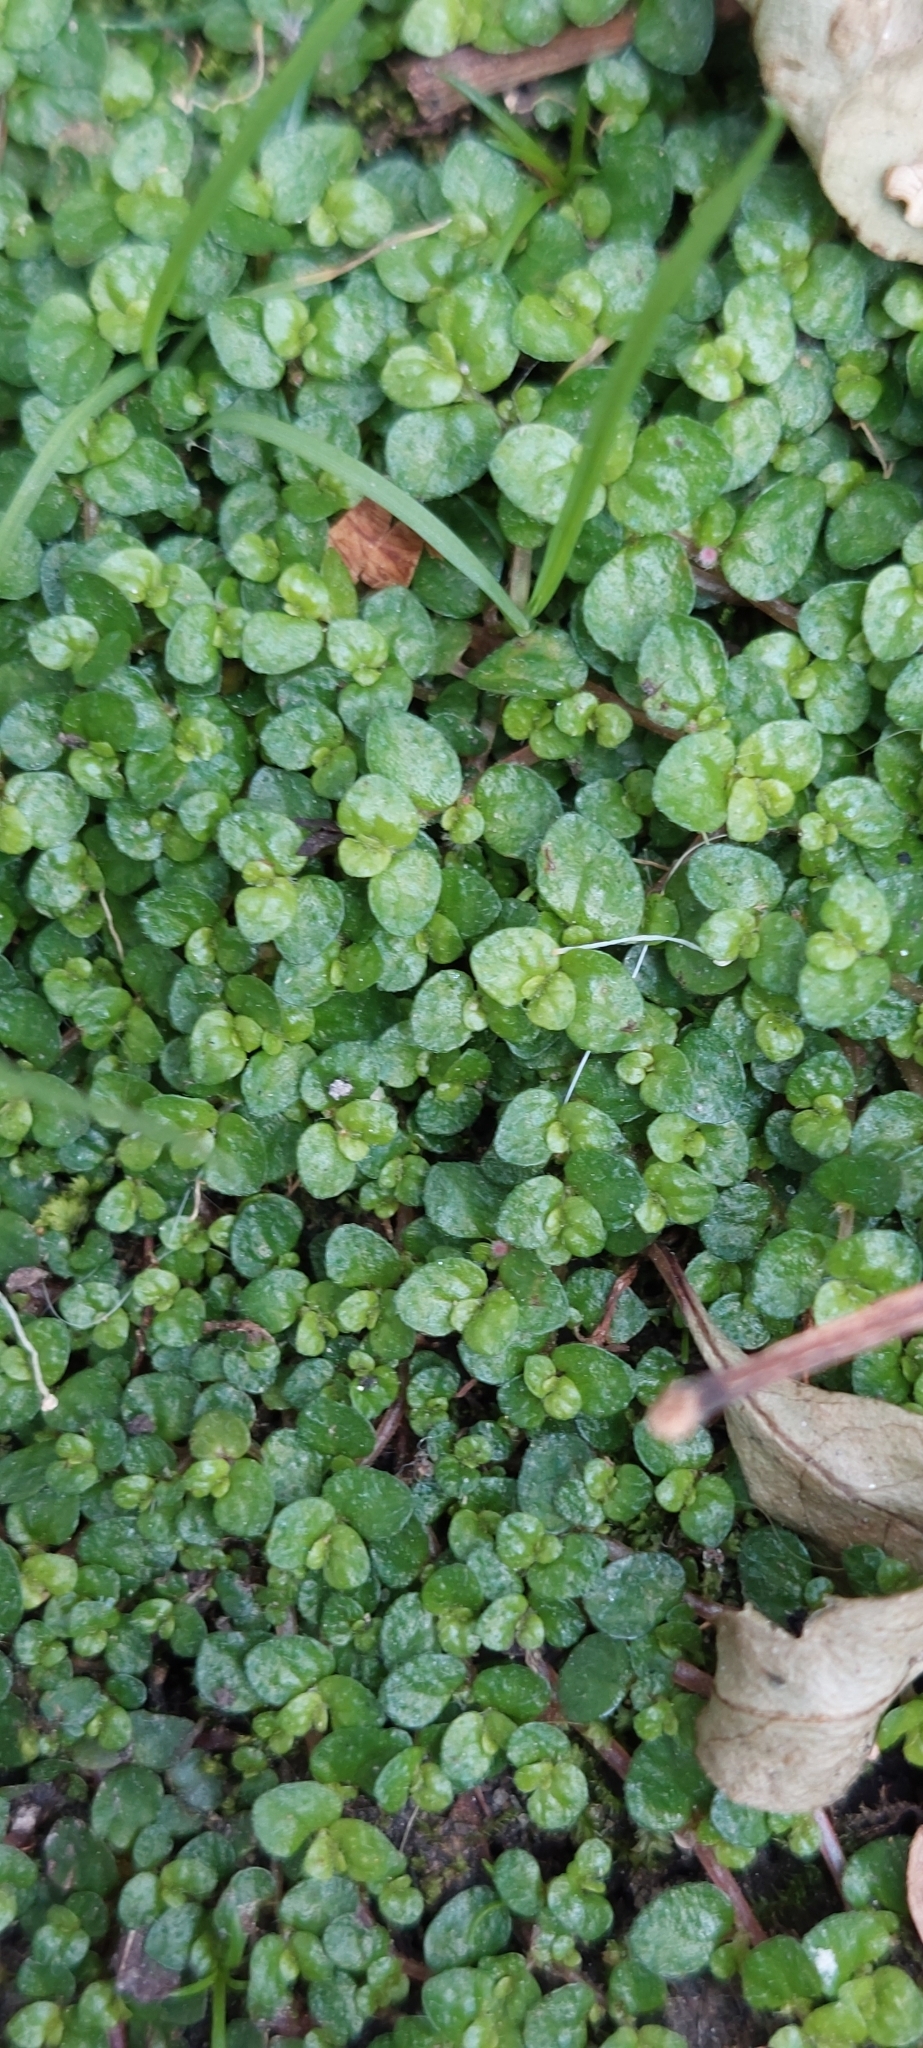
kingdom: Plantae
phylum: Tracheophyta
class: Magnoliopsida
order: Rosales
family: Urticaceae
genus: Soleirolia
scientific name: Soleirolia soleirolii
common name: Mind-your-own-business
